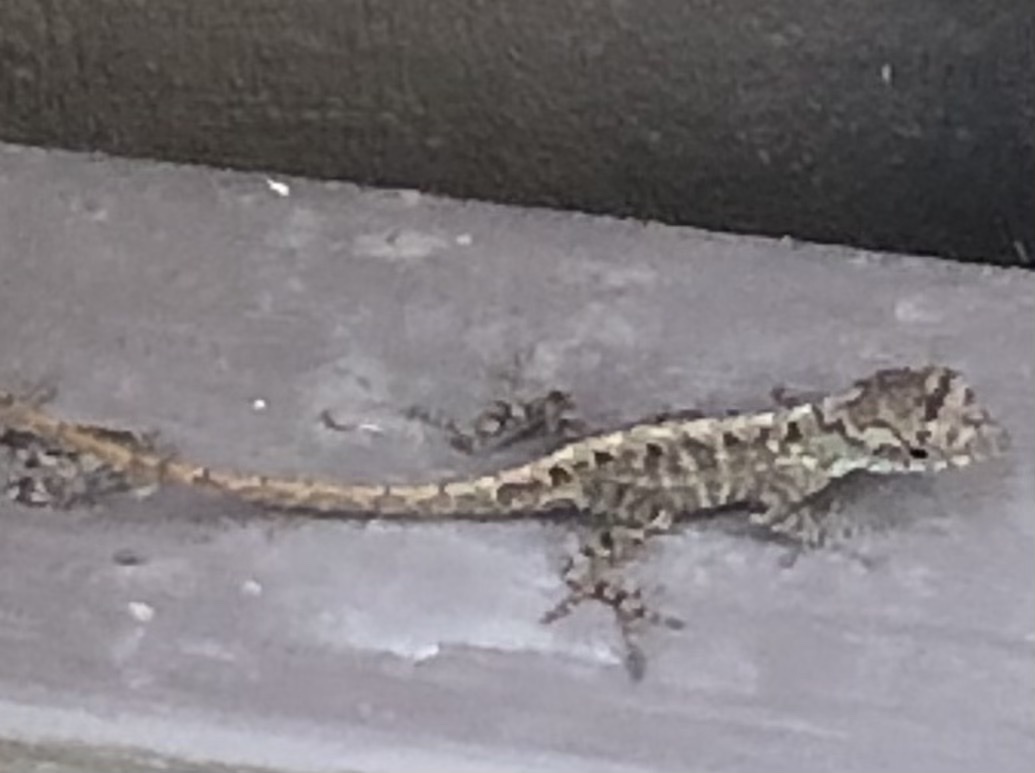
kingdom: Animalia
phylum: Chordata
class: Squamata
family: Dactyloidae
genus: Anolis
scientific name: Anolis sagrei
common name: Brown anole
